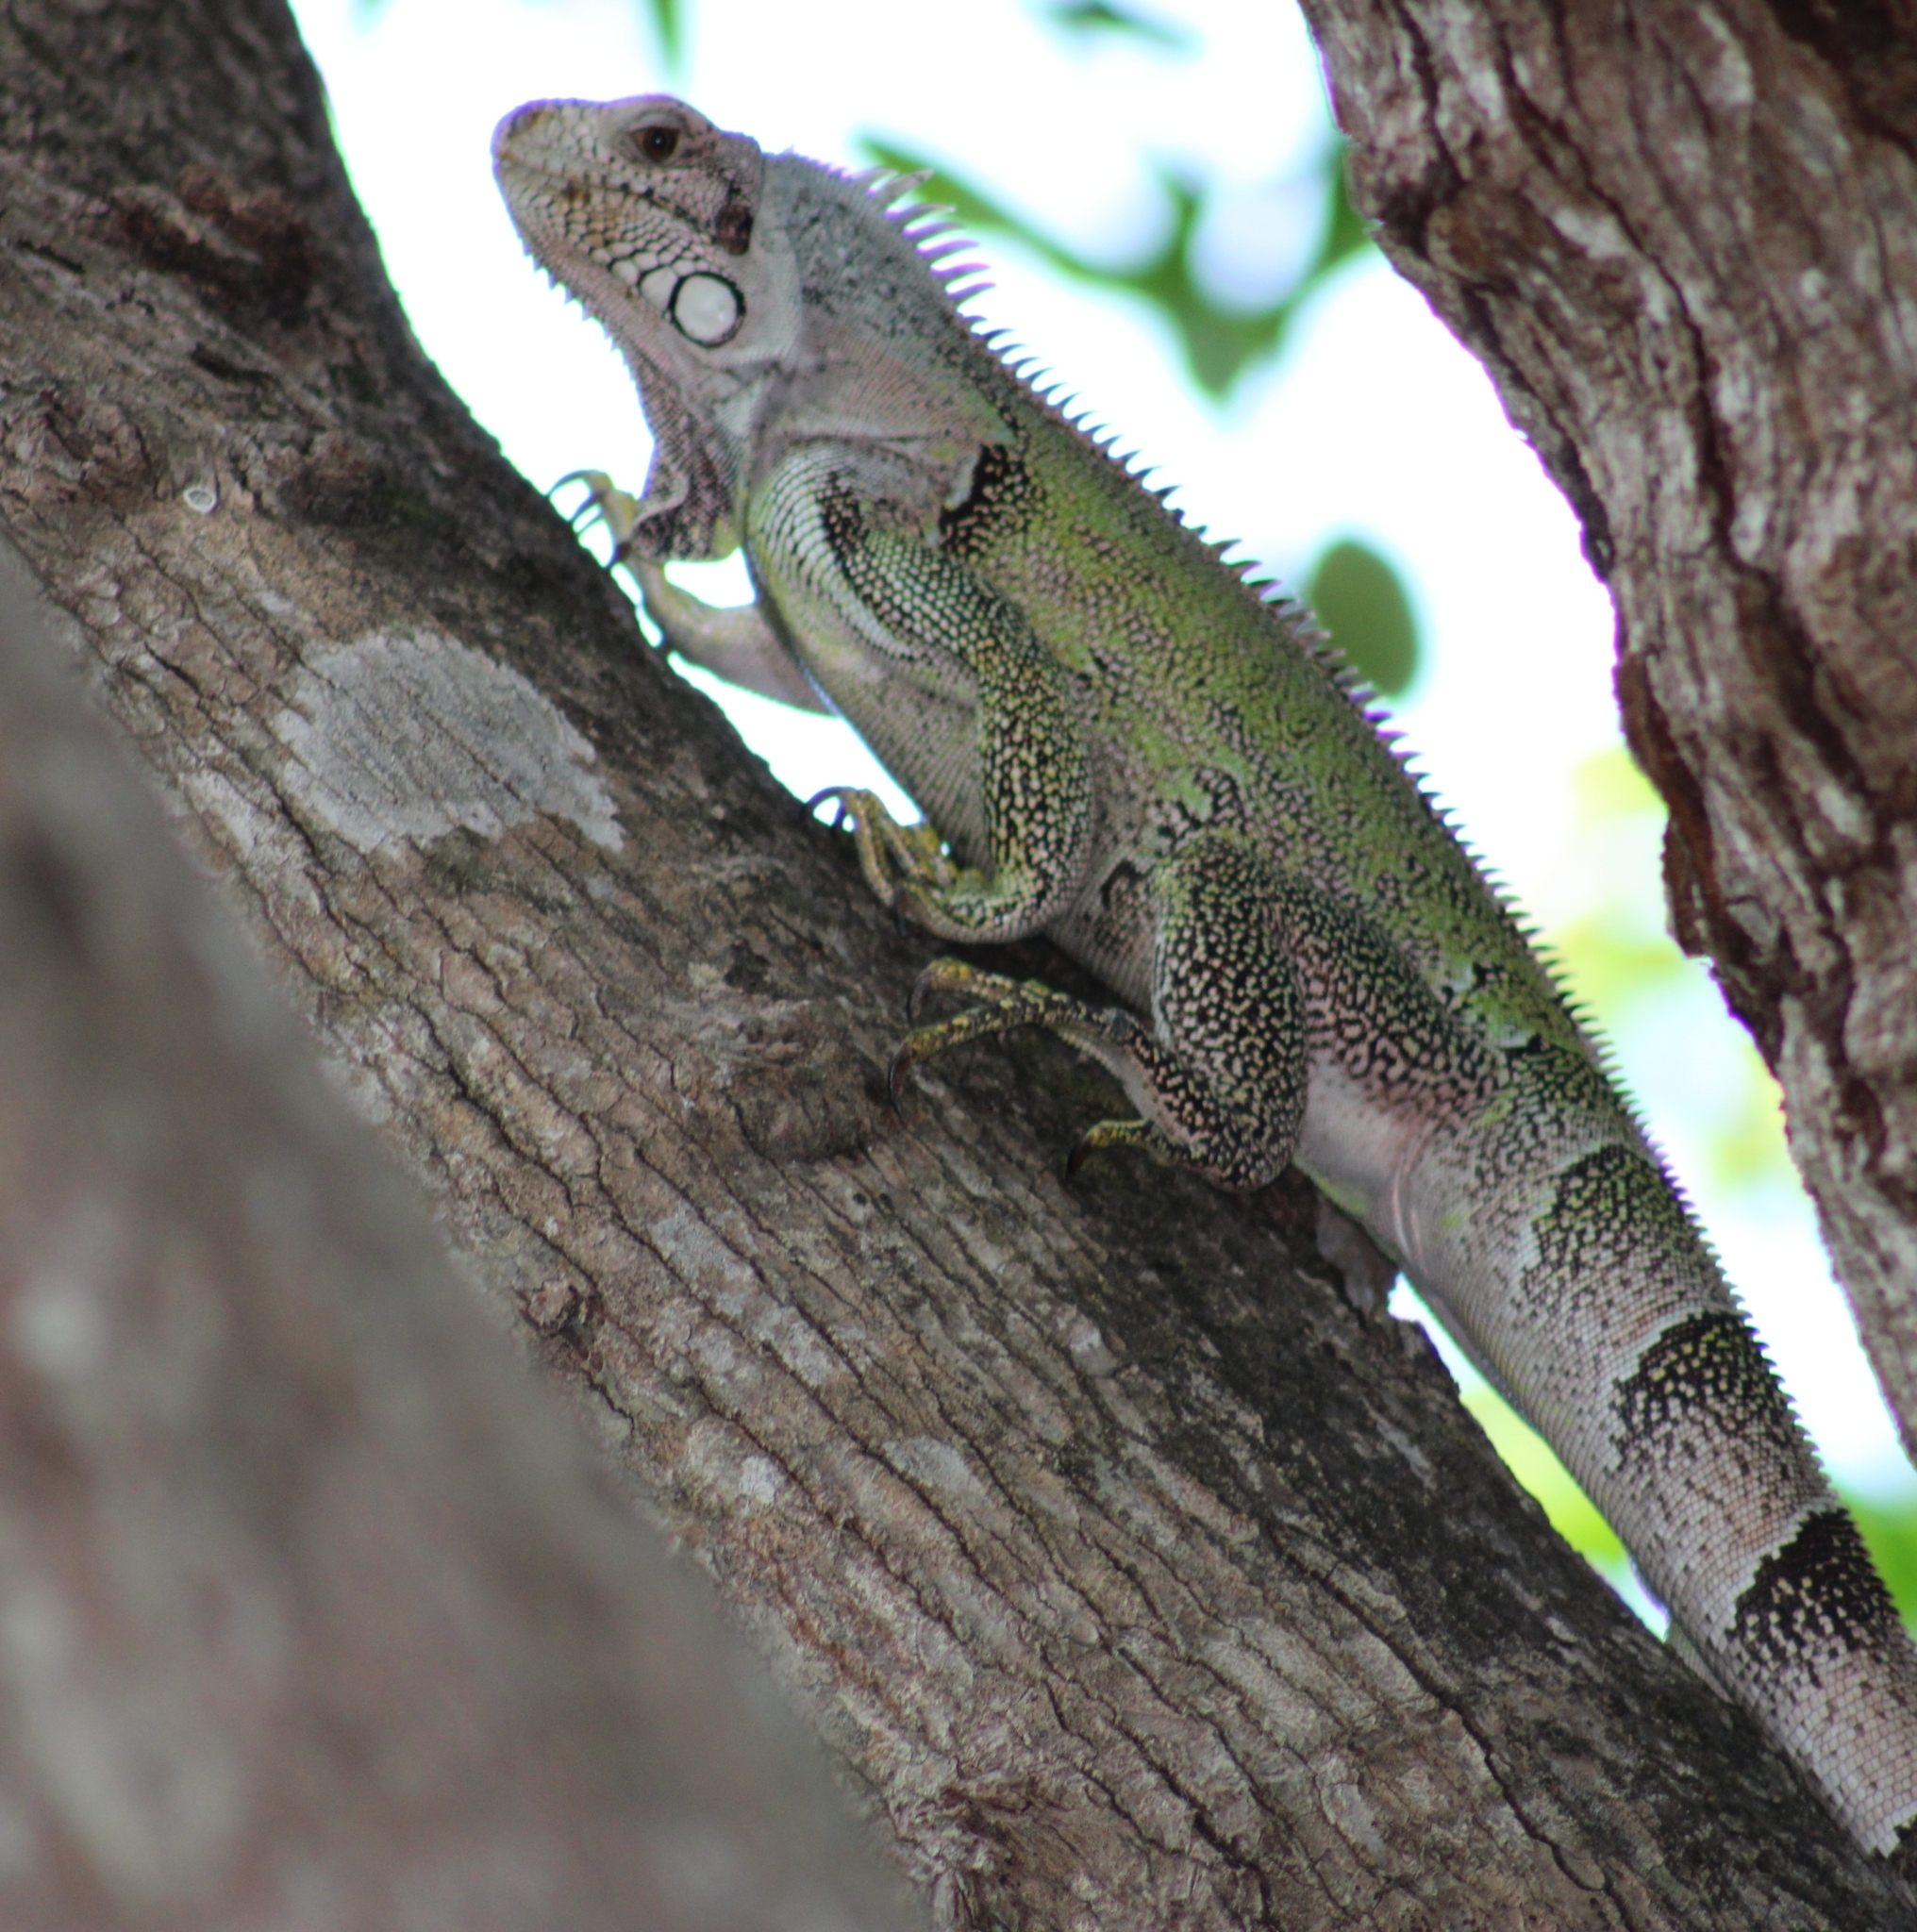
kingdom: Animalia
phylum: Chordata
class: Squamata
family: Iguanidae
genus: Iguana
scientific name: Iguana iguana
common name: Green iguana
